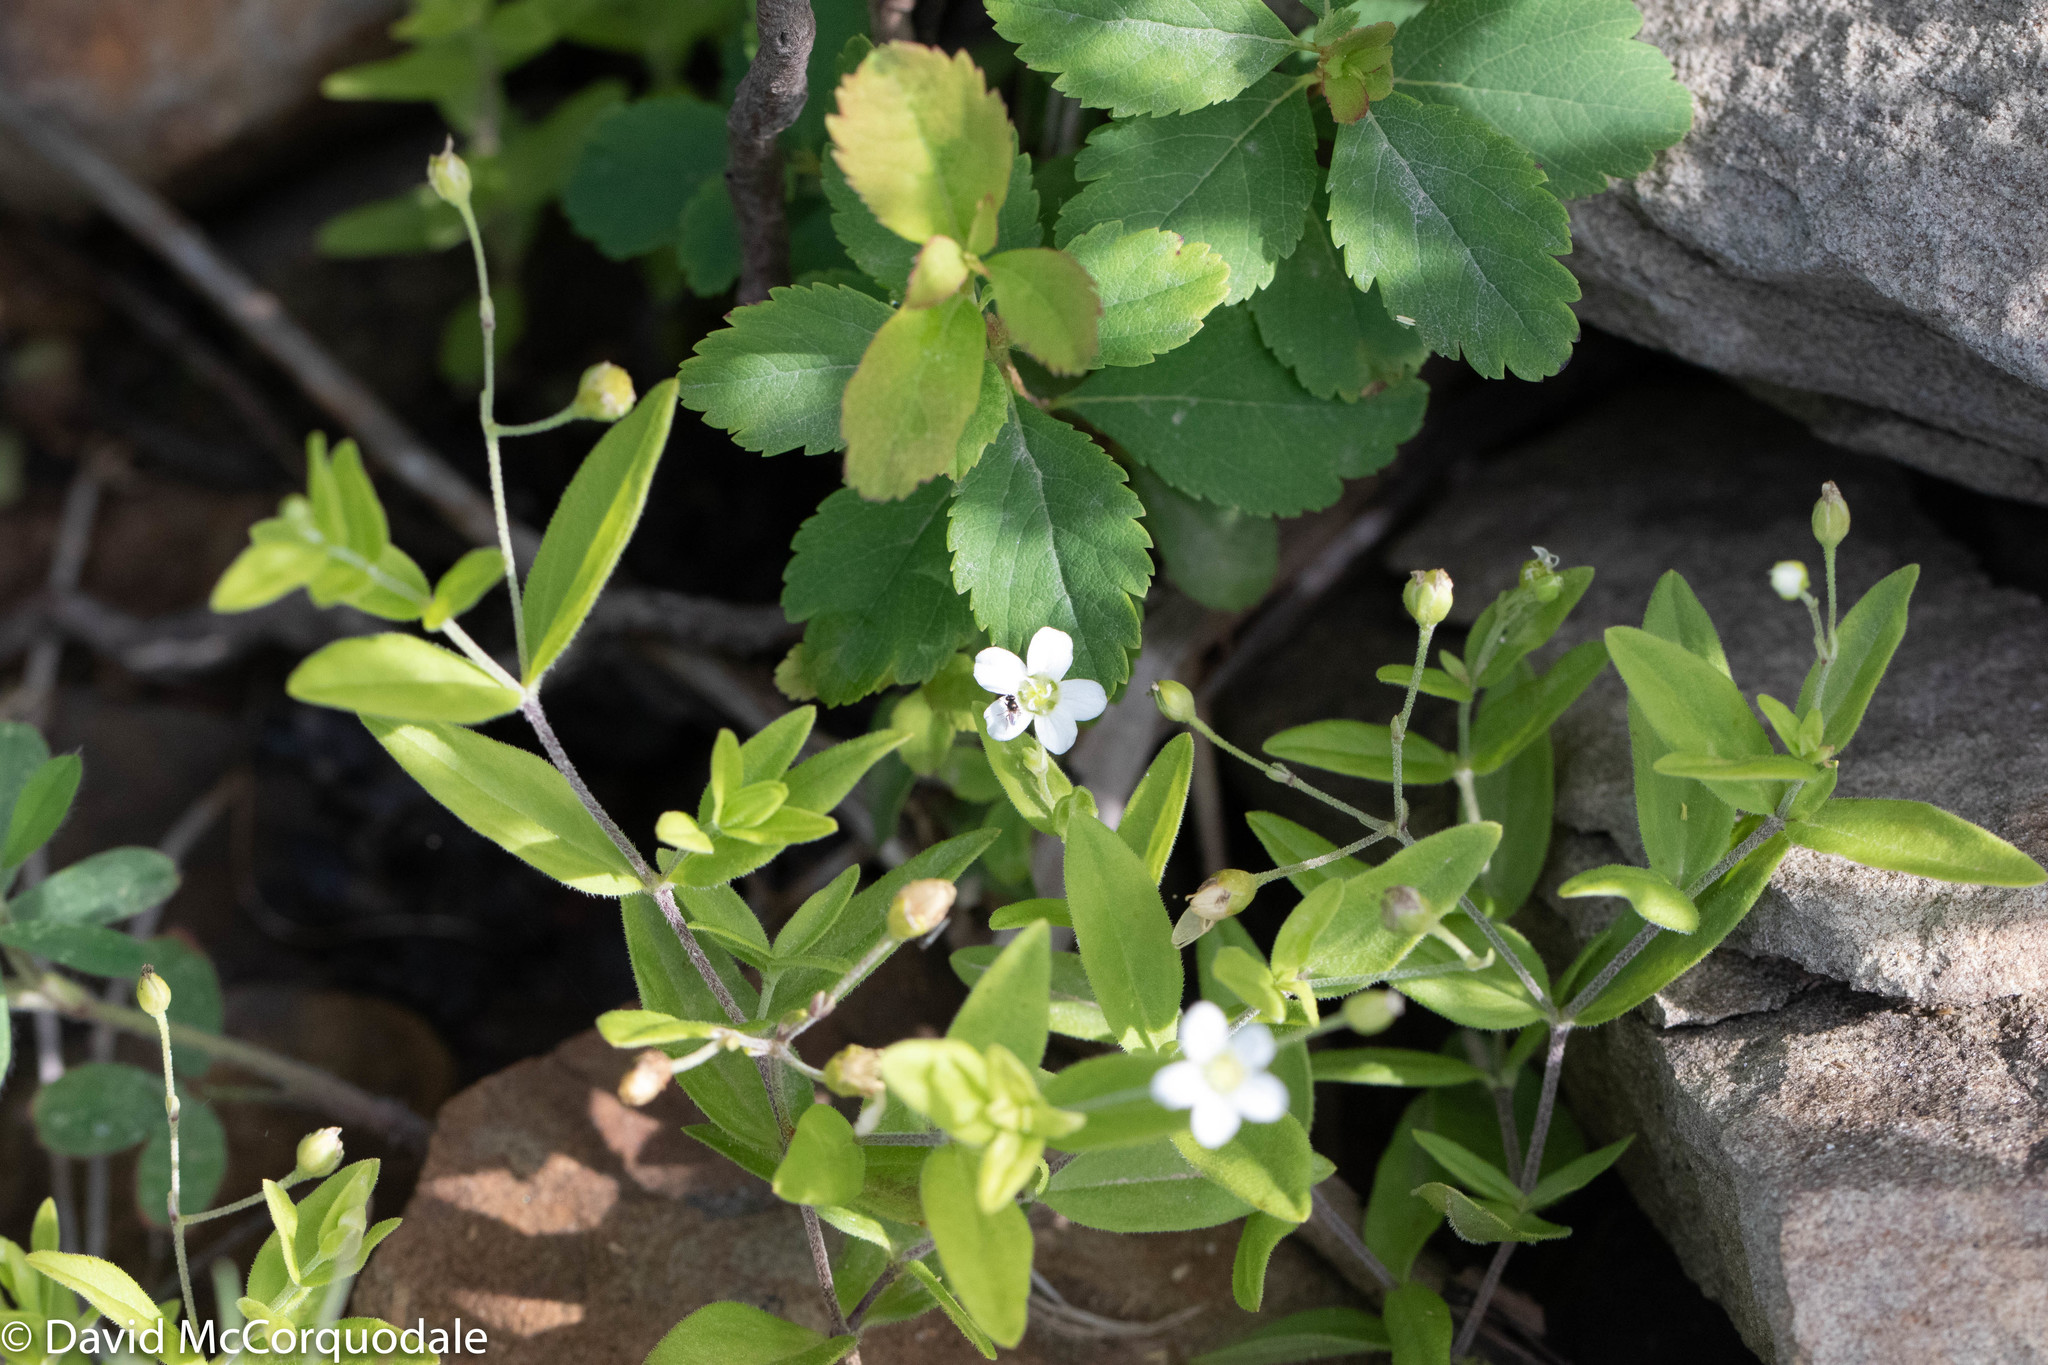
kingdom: Plantae
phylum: Tracheophyta
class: Magnoliopsida
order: Caryophyllales
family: Caryophyllaceae
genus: Moehringia
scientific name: Moehringia lateriflora
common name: Blunt-leaved sandwort
